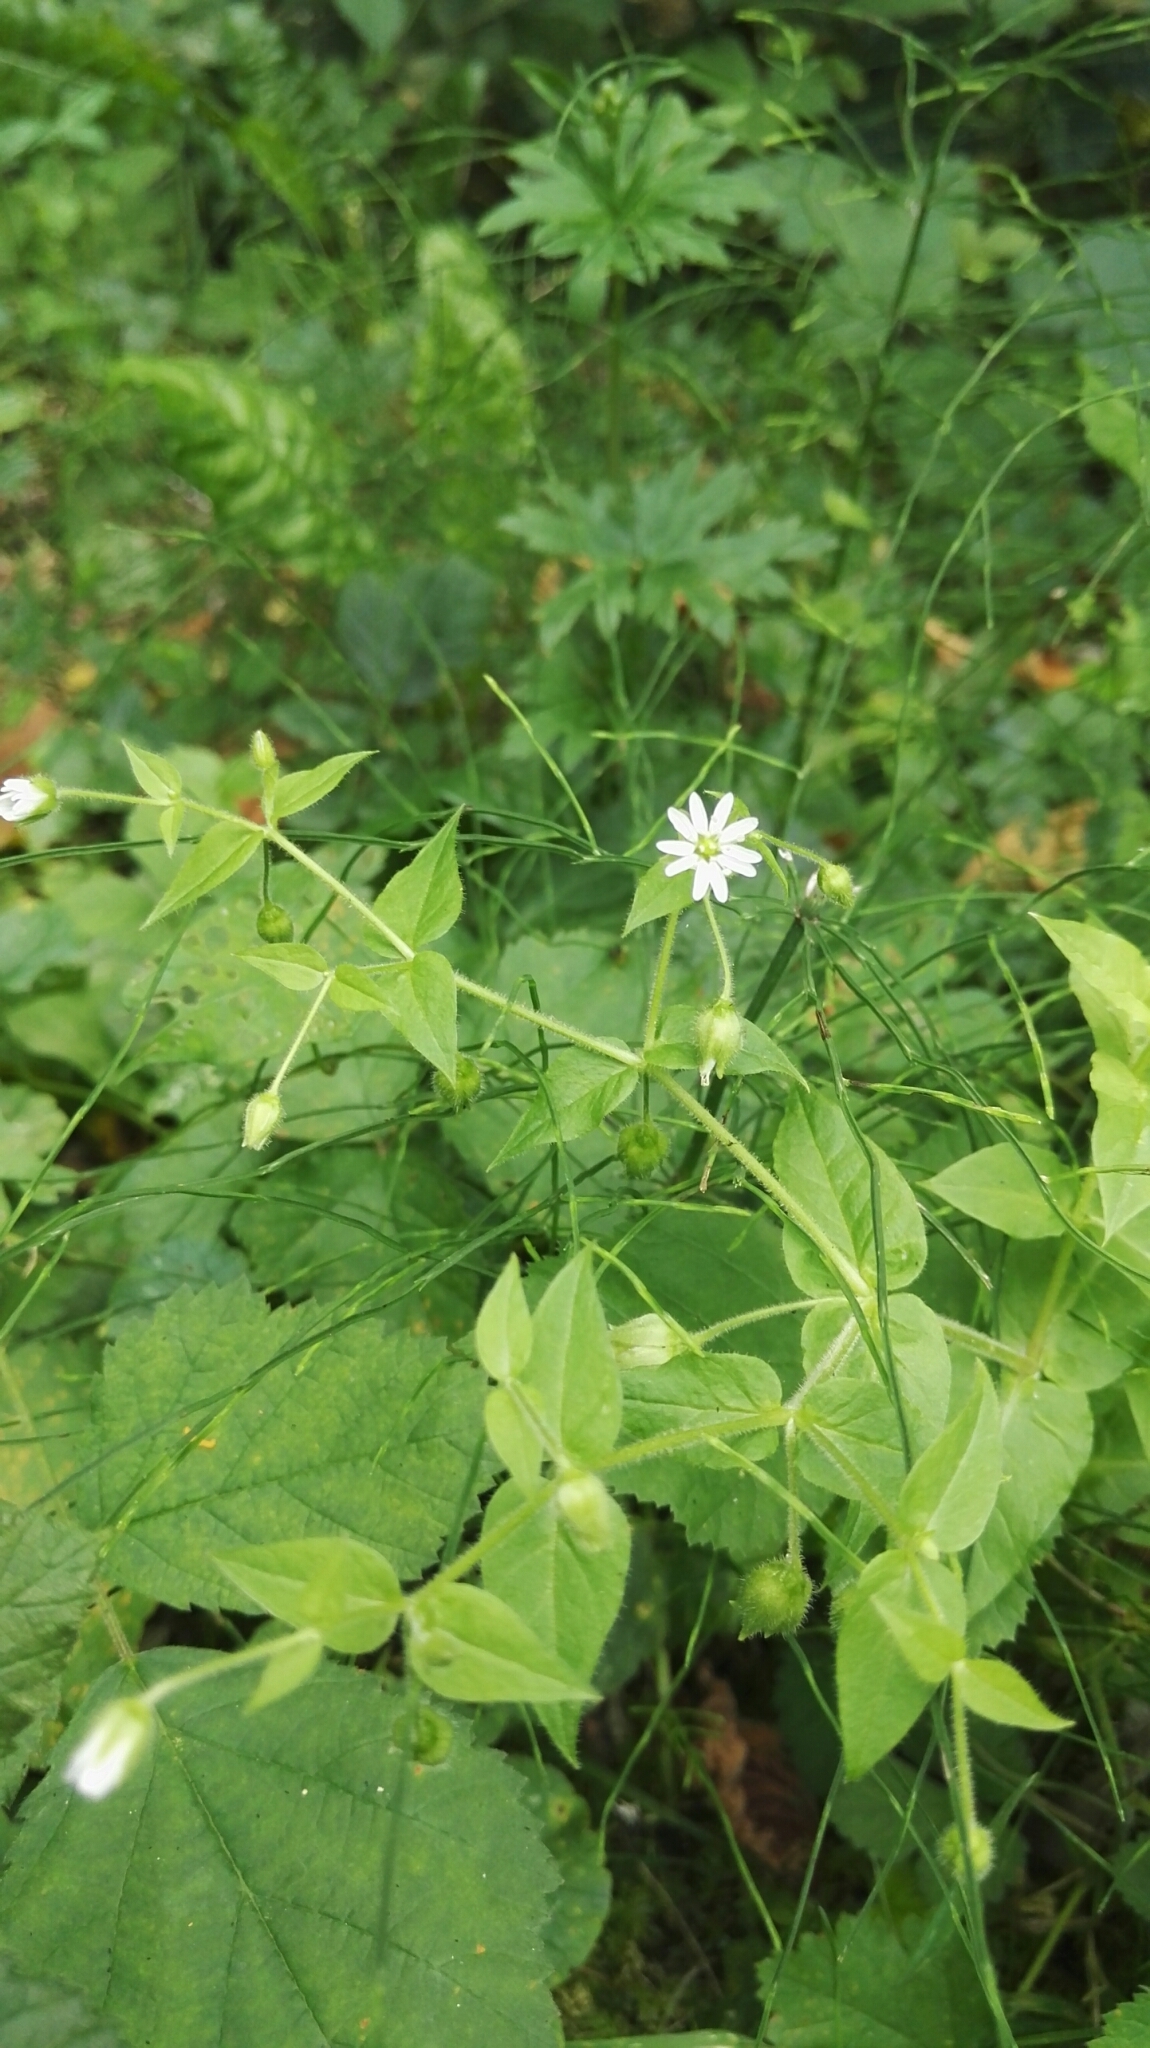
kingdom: Plantae
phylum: Tracheophyta
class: Magnoliopsida
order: Caryophyllales
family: Caryophyllaceae
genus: Stellaria
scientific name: Stellaria aquatica
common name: Water chickweed
